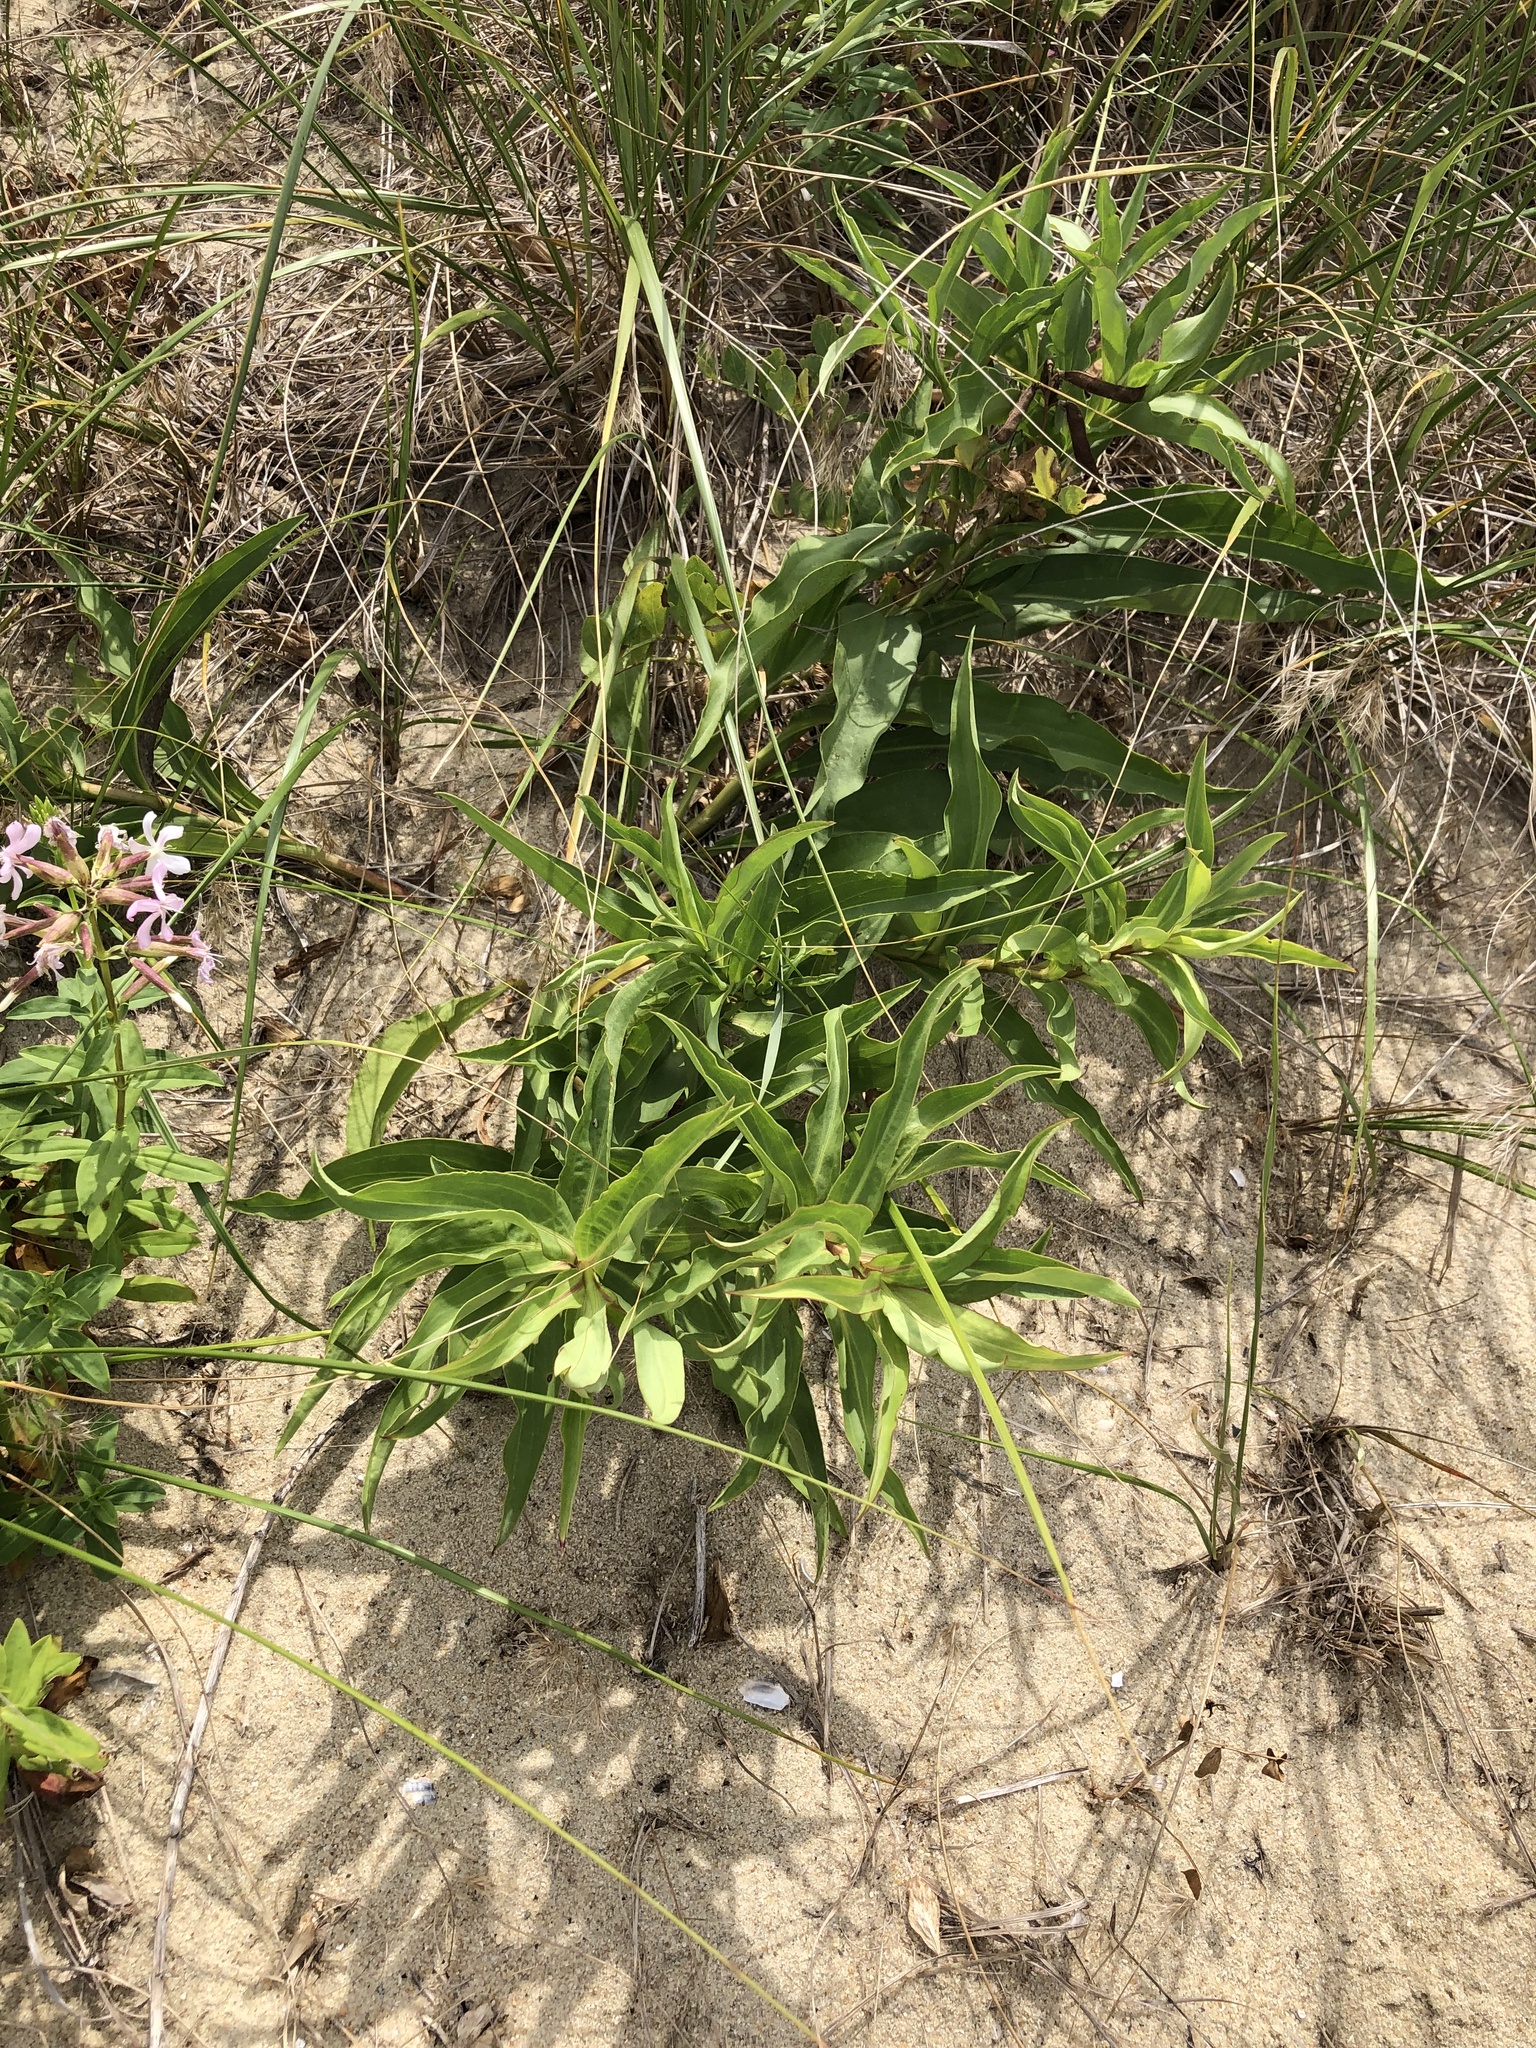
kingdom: Plantae
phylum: Tracheophyta
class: Magnoliopsida
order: Asterales
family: Asteraceae
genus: Solidago
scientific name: Solidago sempervirens
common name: Salt-marsh goldenrod
